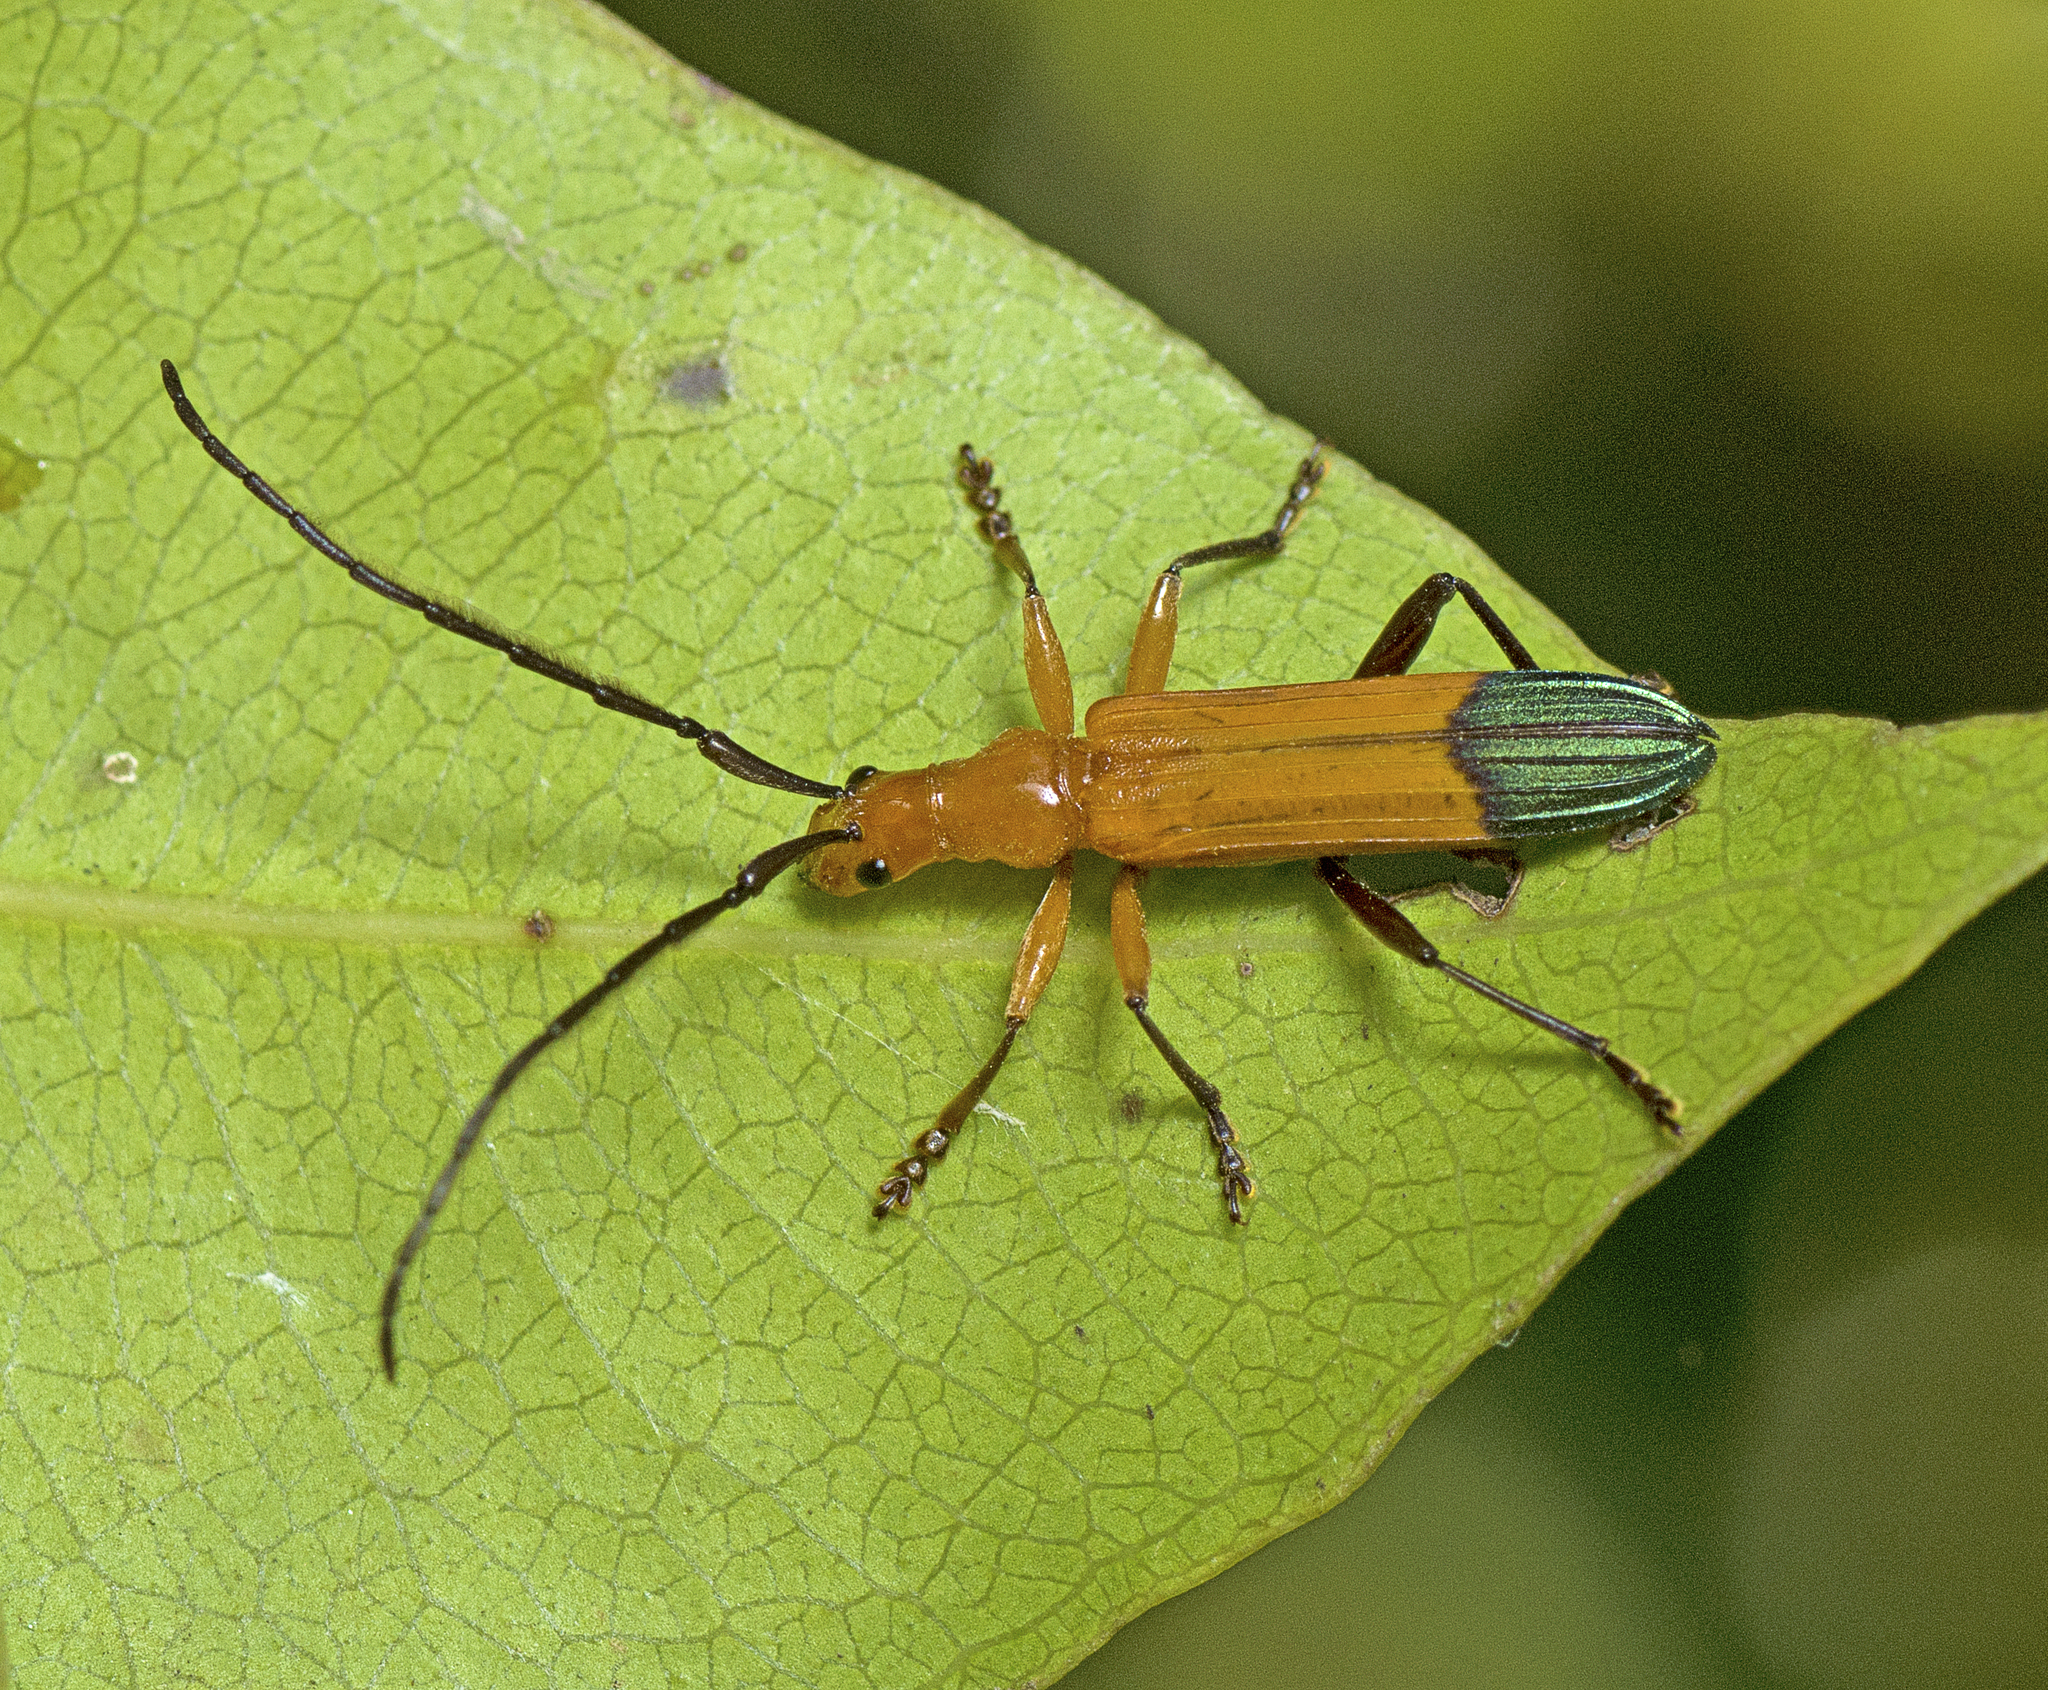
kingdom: Animalia
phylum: Arthropoda
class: Insecta
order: Coleoptera
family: Cerambycidae
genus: Stenoderus
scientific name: Stenoderus ostricilla
